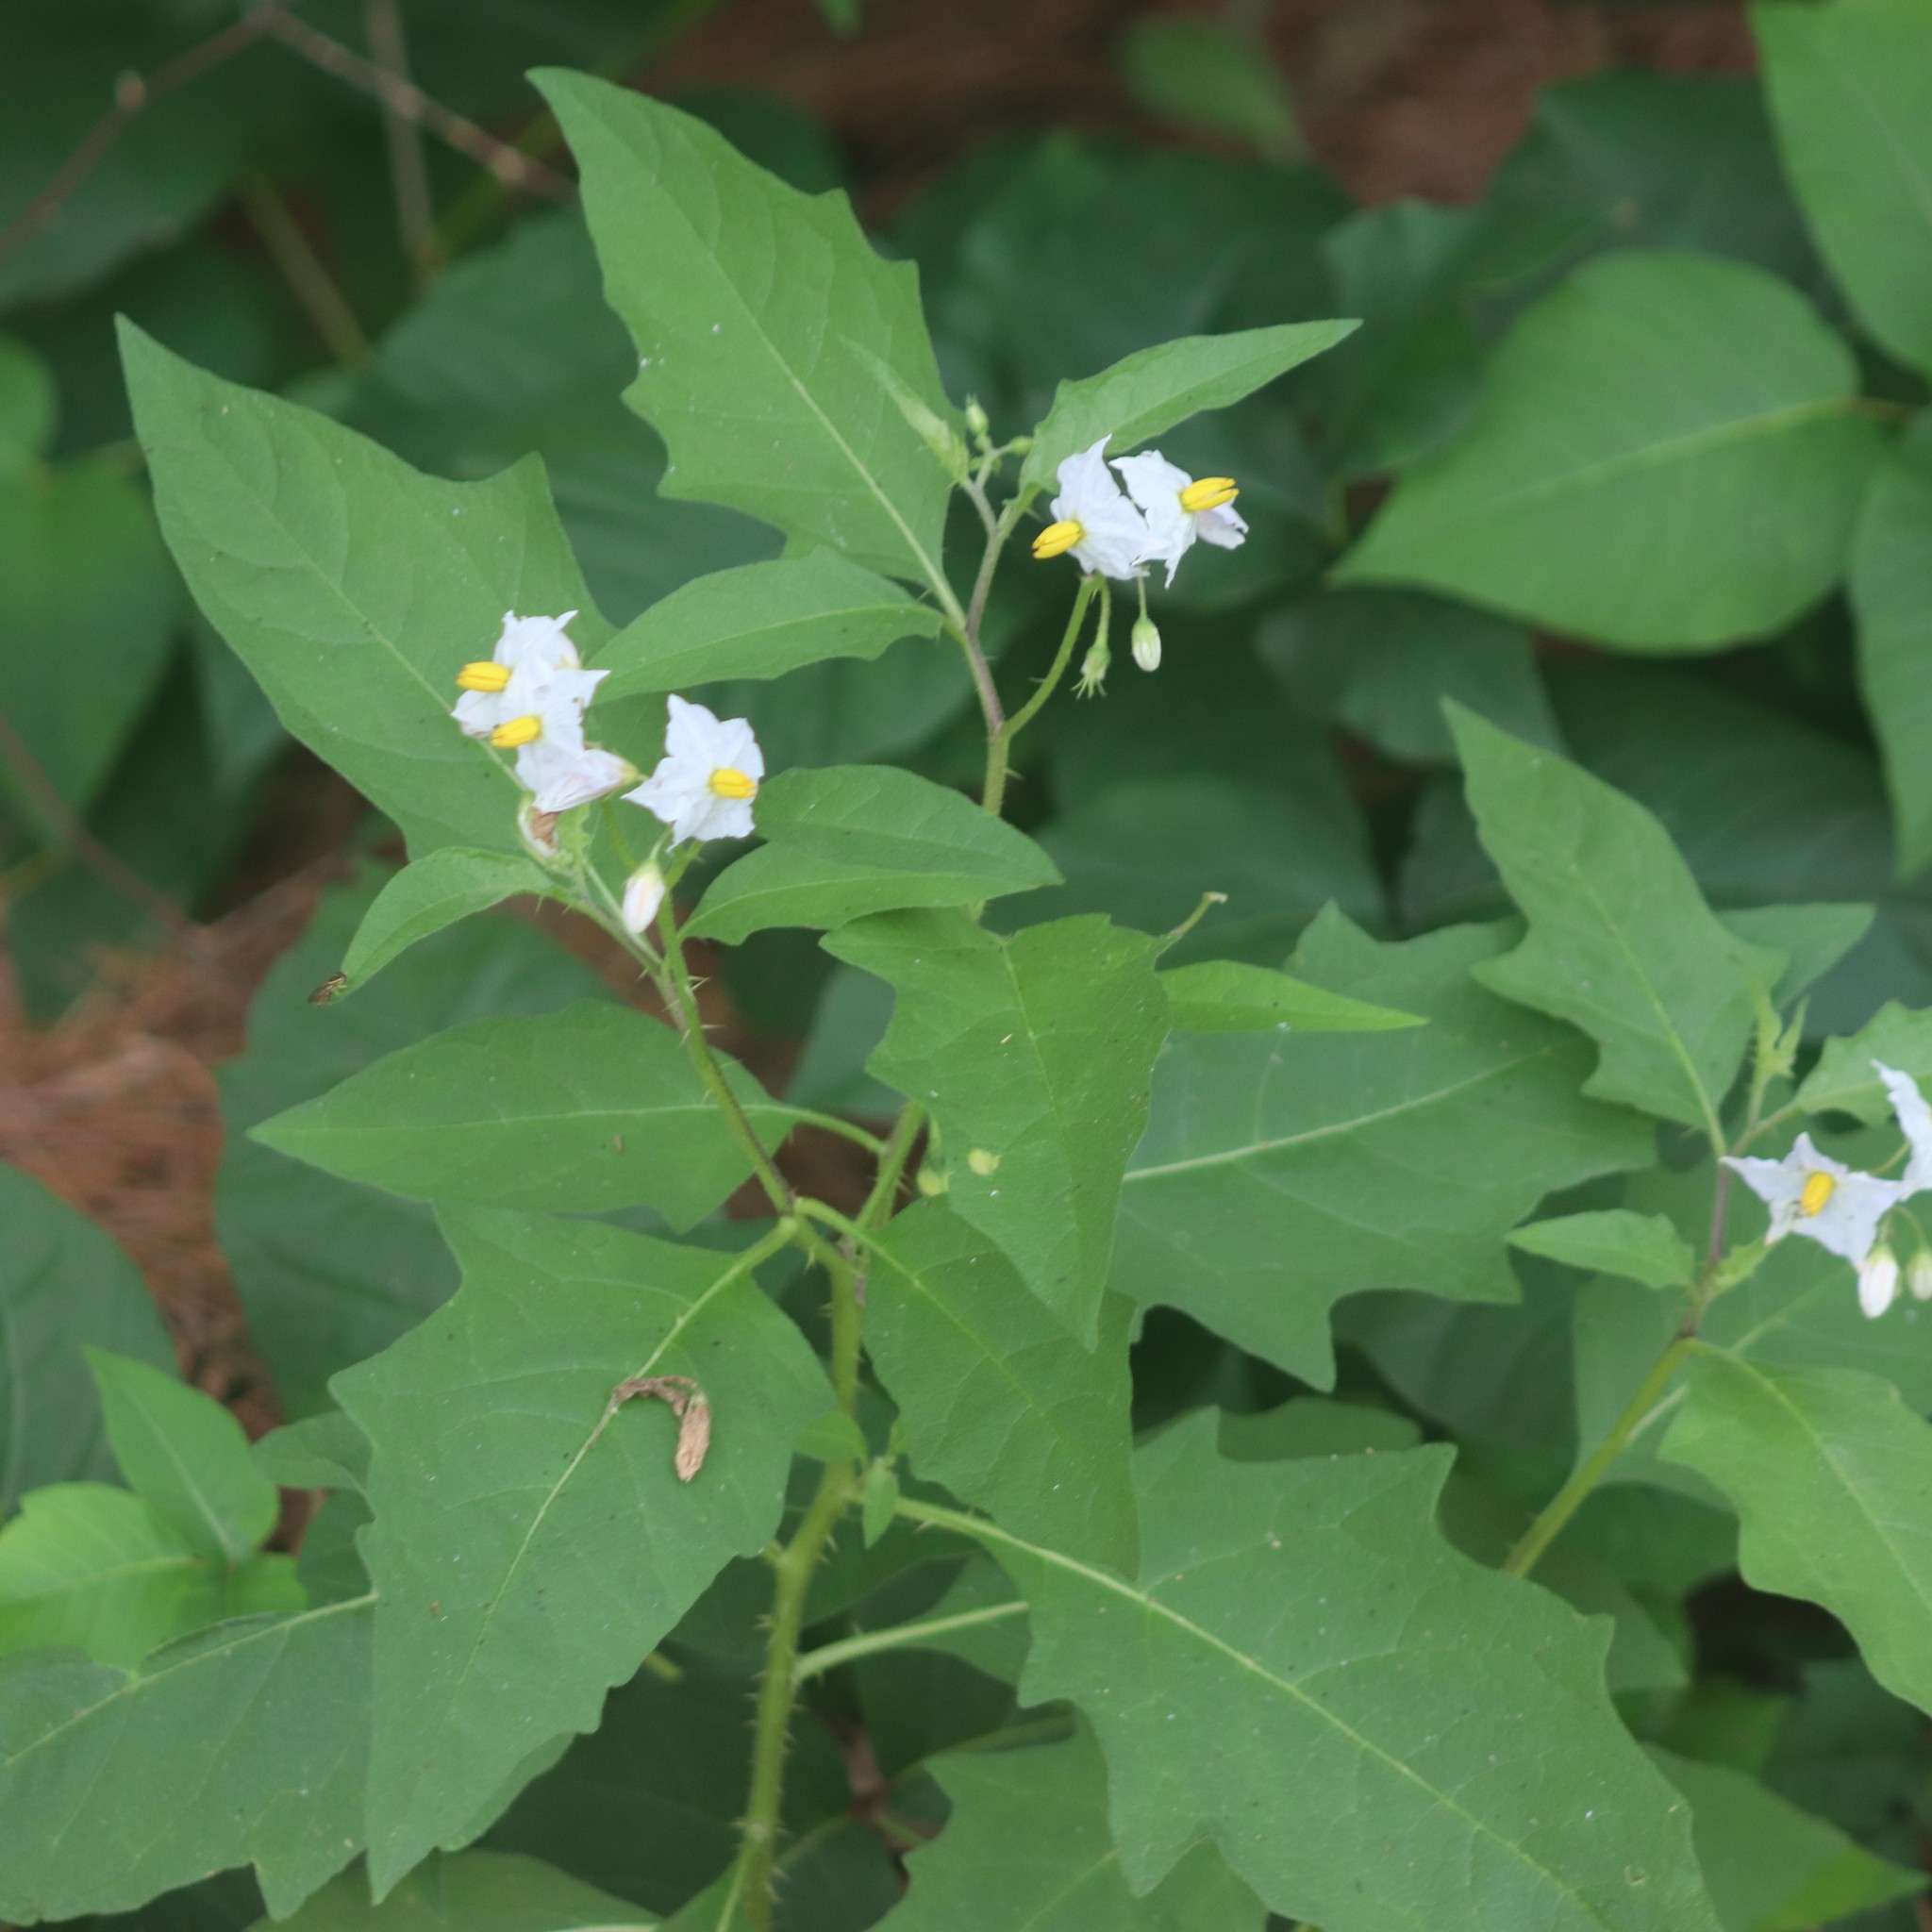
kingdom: Plantae
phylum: Tracheophyta
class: Magnoliopsida
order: Solanales
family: Solanaceae
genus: Solanum
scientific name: Solanum carolinense
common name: Horse-nettle
